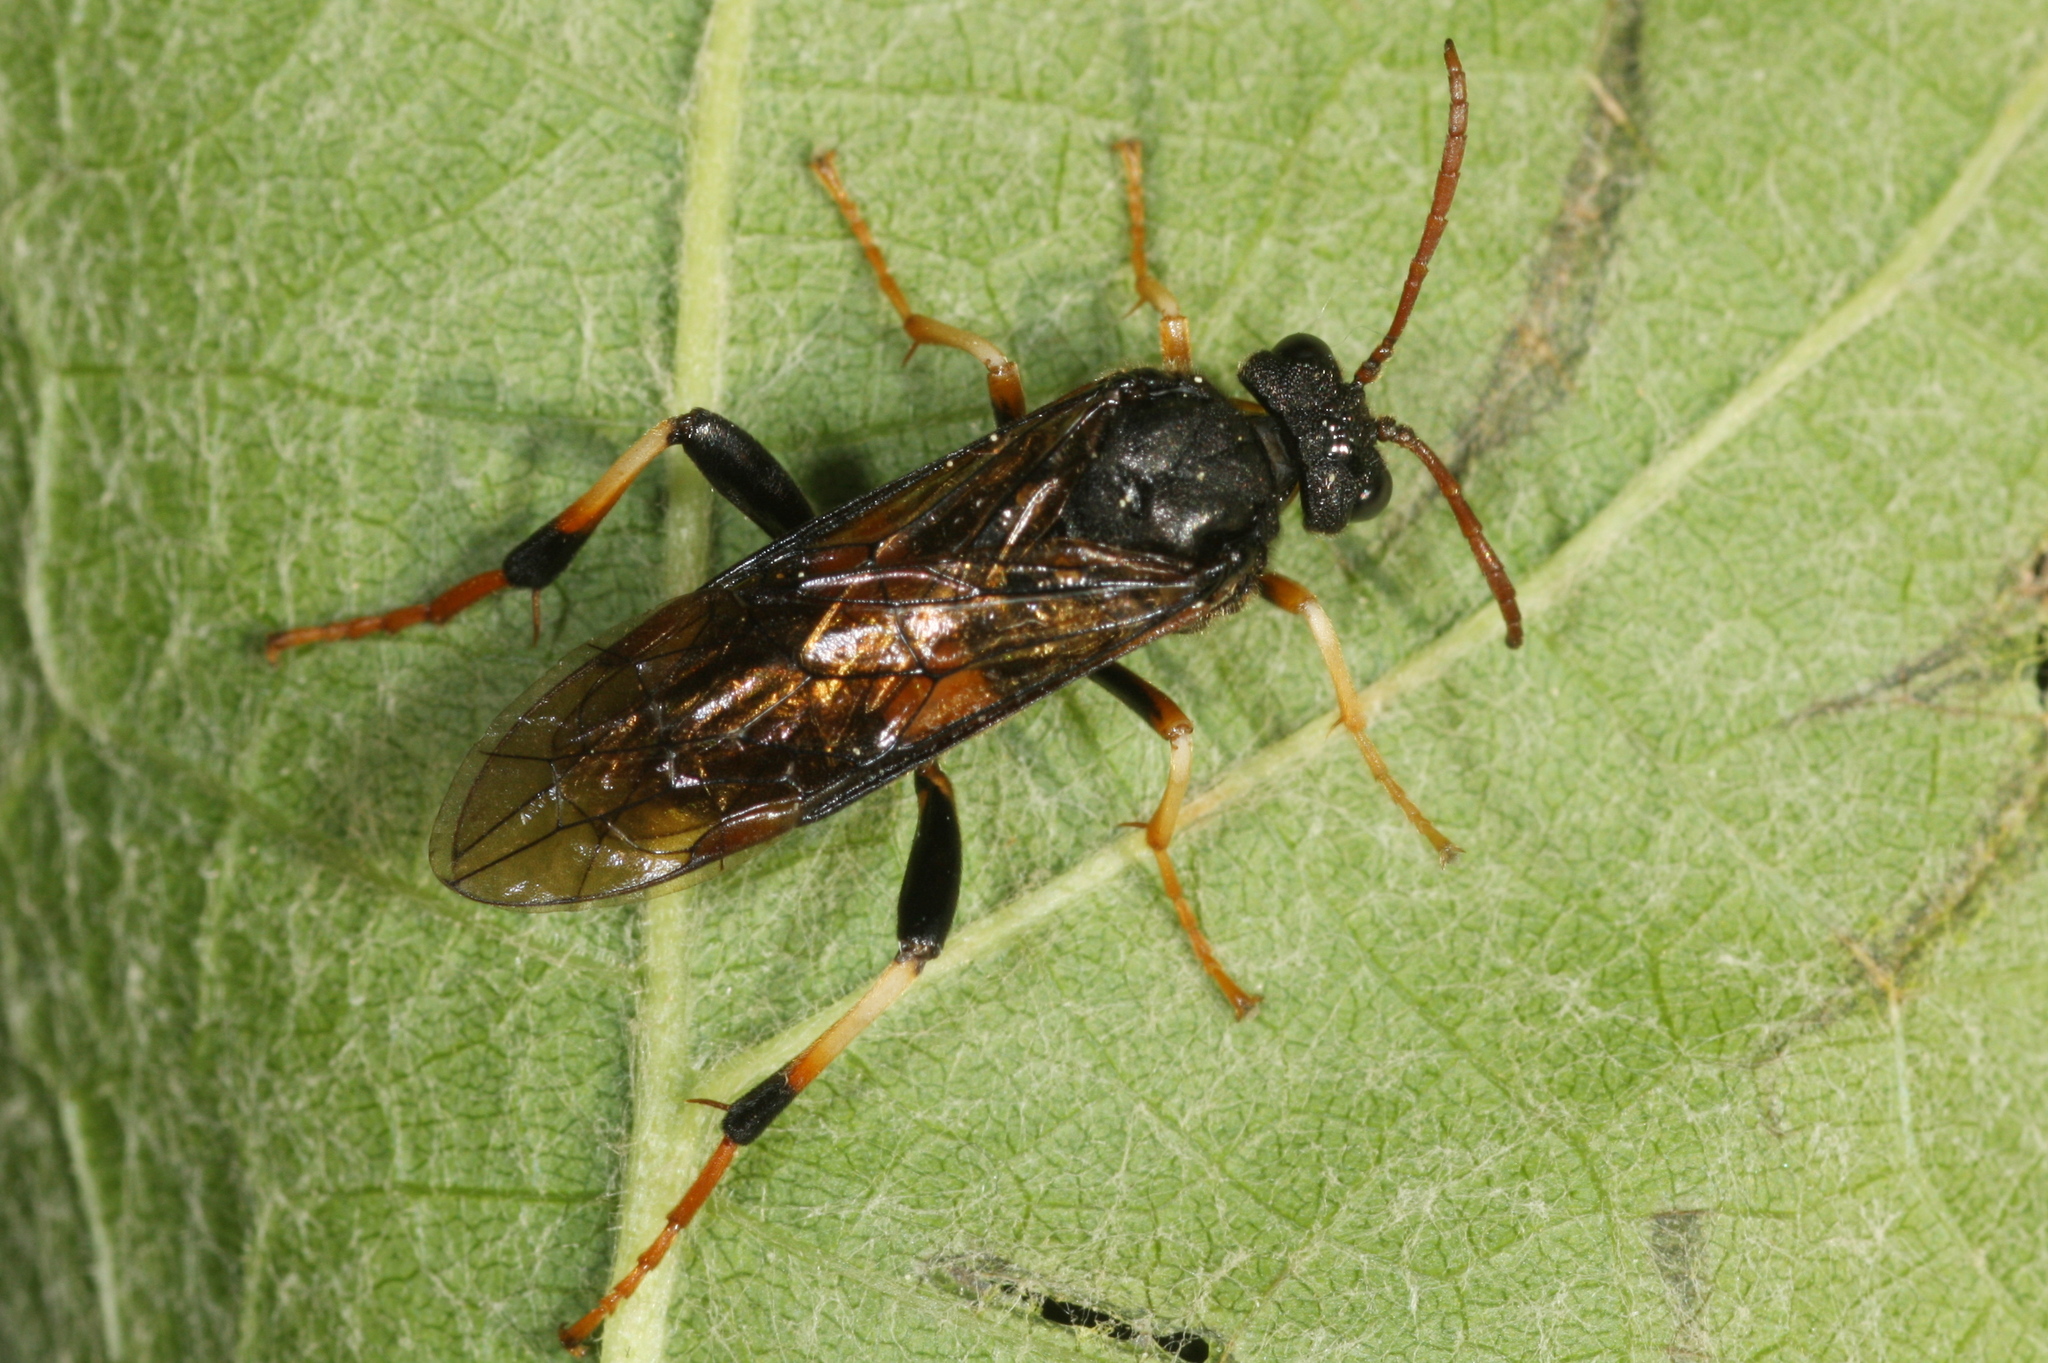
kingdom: Animalia
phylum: Arthropoda
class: Insecta
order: Hymenoptera
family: Tenthredinidae
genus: Siobla
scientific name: Siobla sturmii
